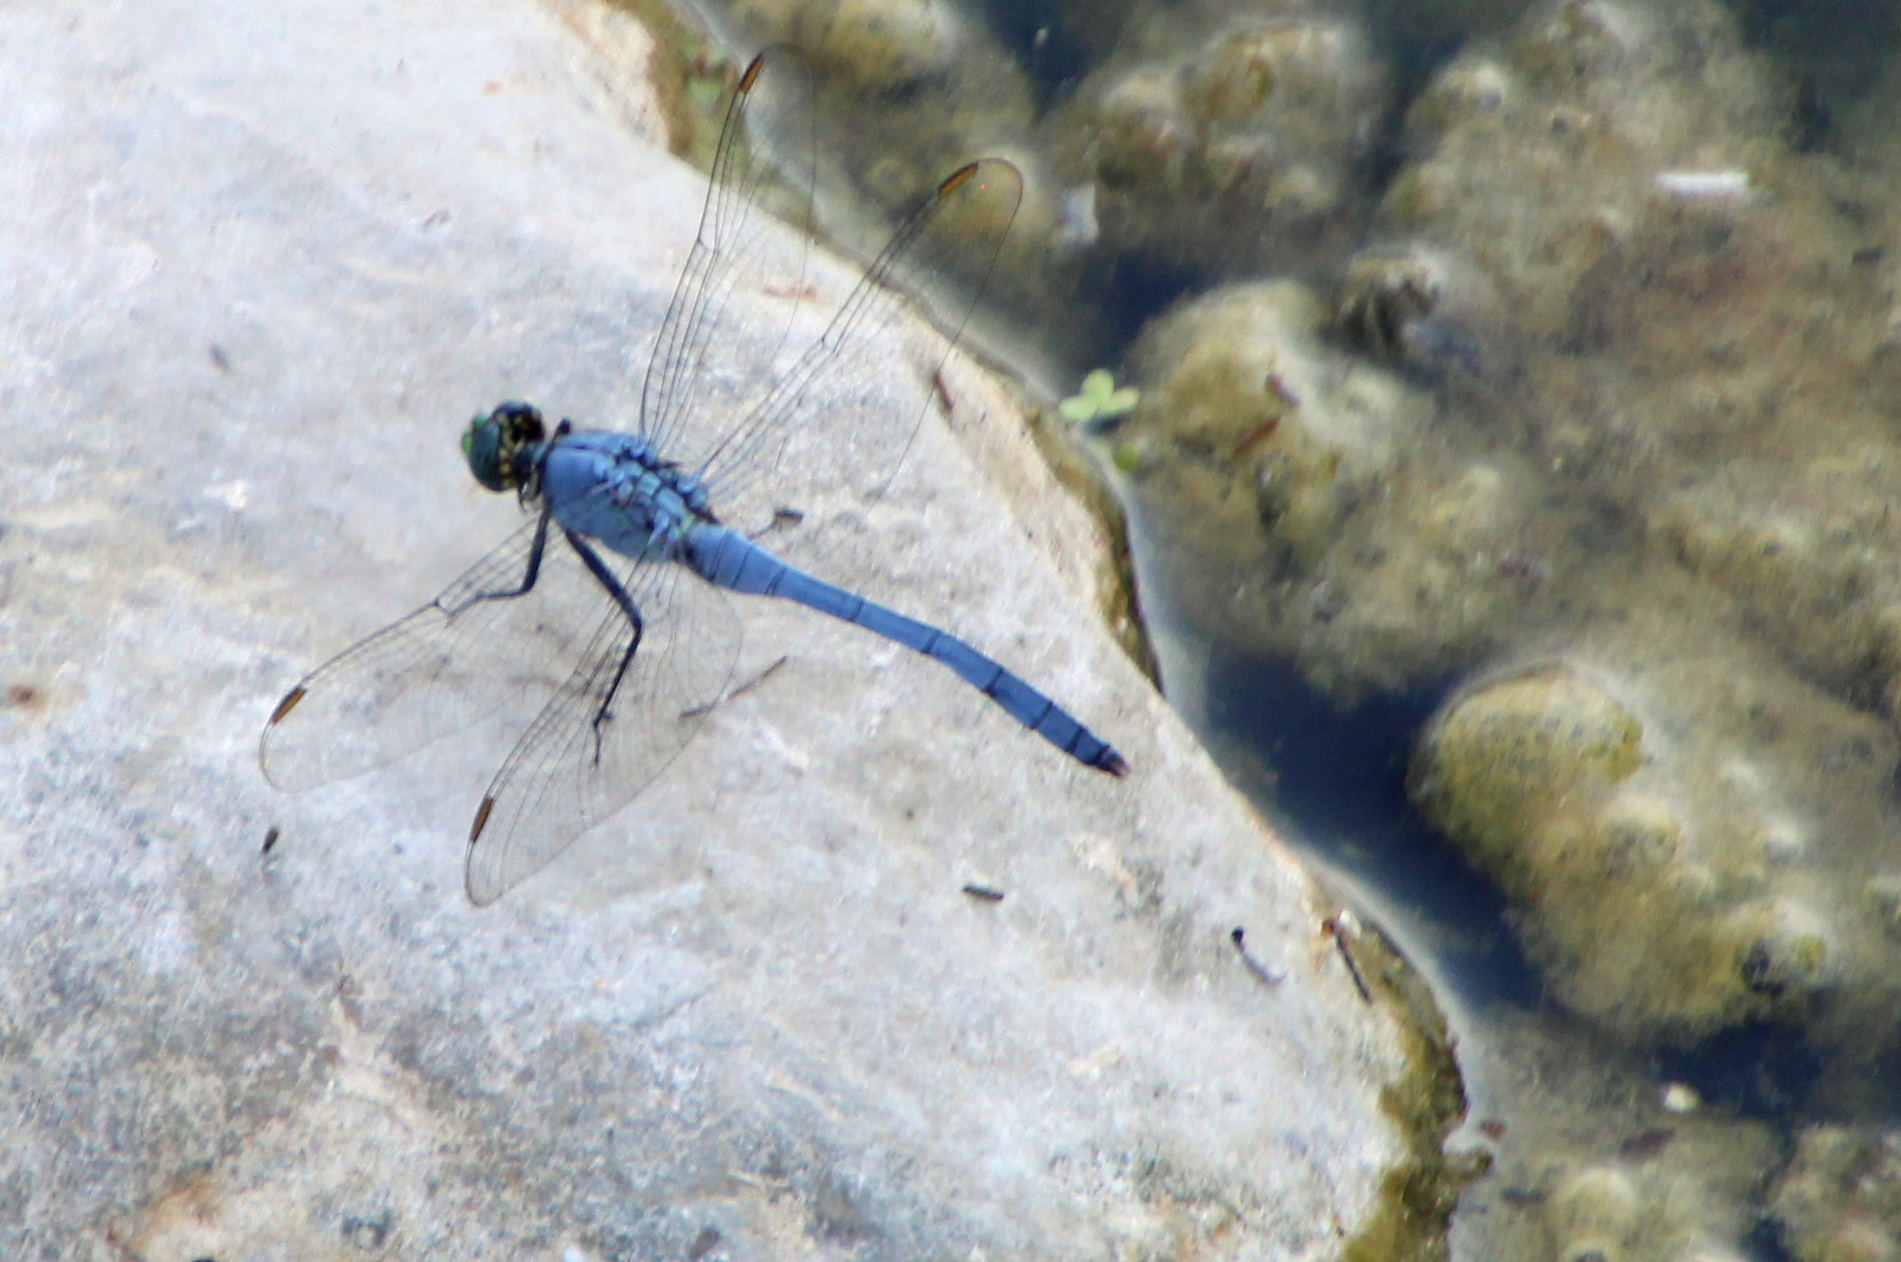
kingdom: Animalia
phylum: Arthropoda
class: Insecta
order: Odonata
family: Libellulidae
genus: Erythemis
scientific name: Erythemis simplicicollis
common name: Eastern pondhawk
